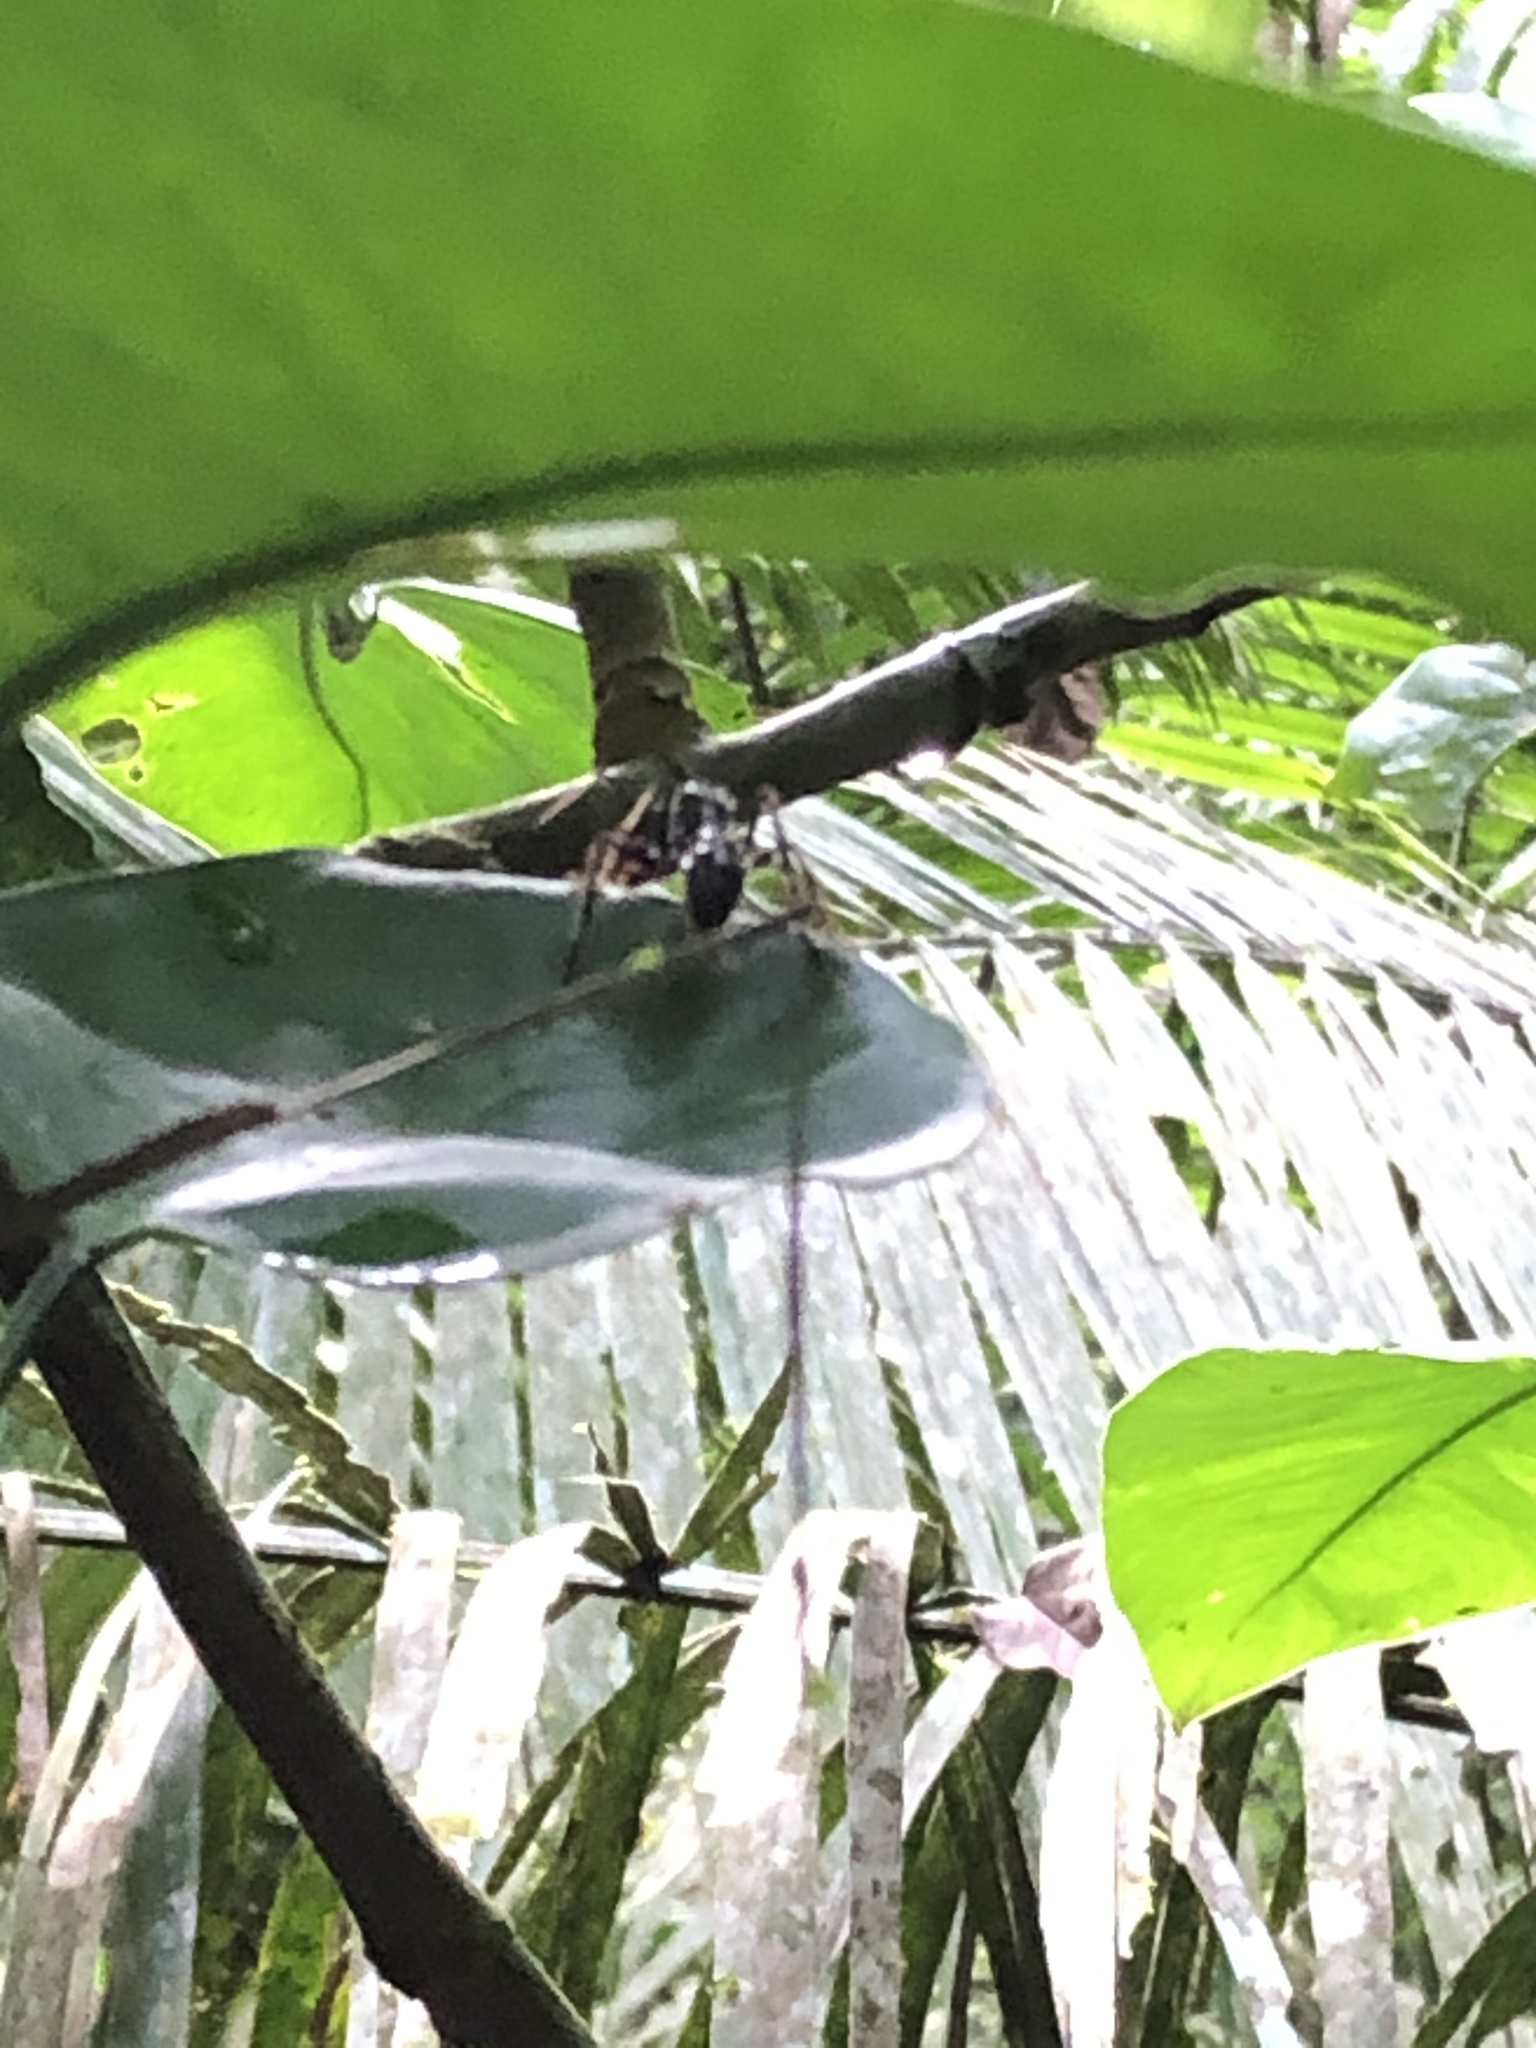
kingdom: Animalia
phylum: Arthropoda
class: Insecta
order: Hymenoptera
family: Formicidae
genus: Paraponera
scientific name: Paraponera clavata
